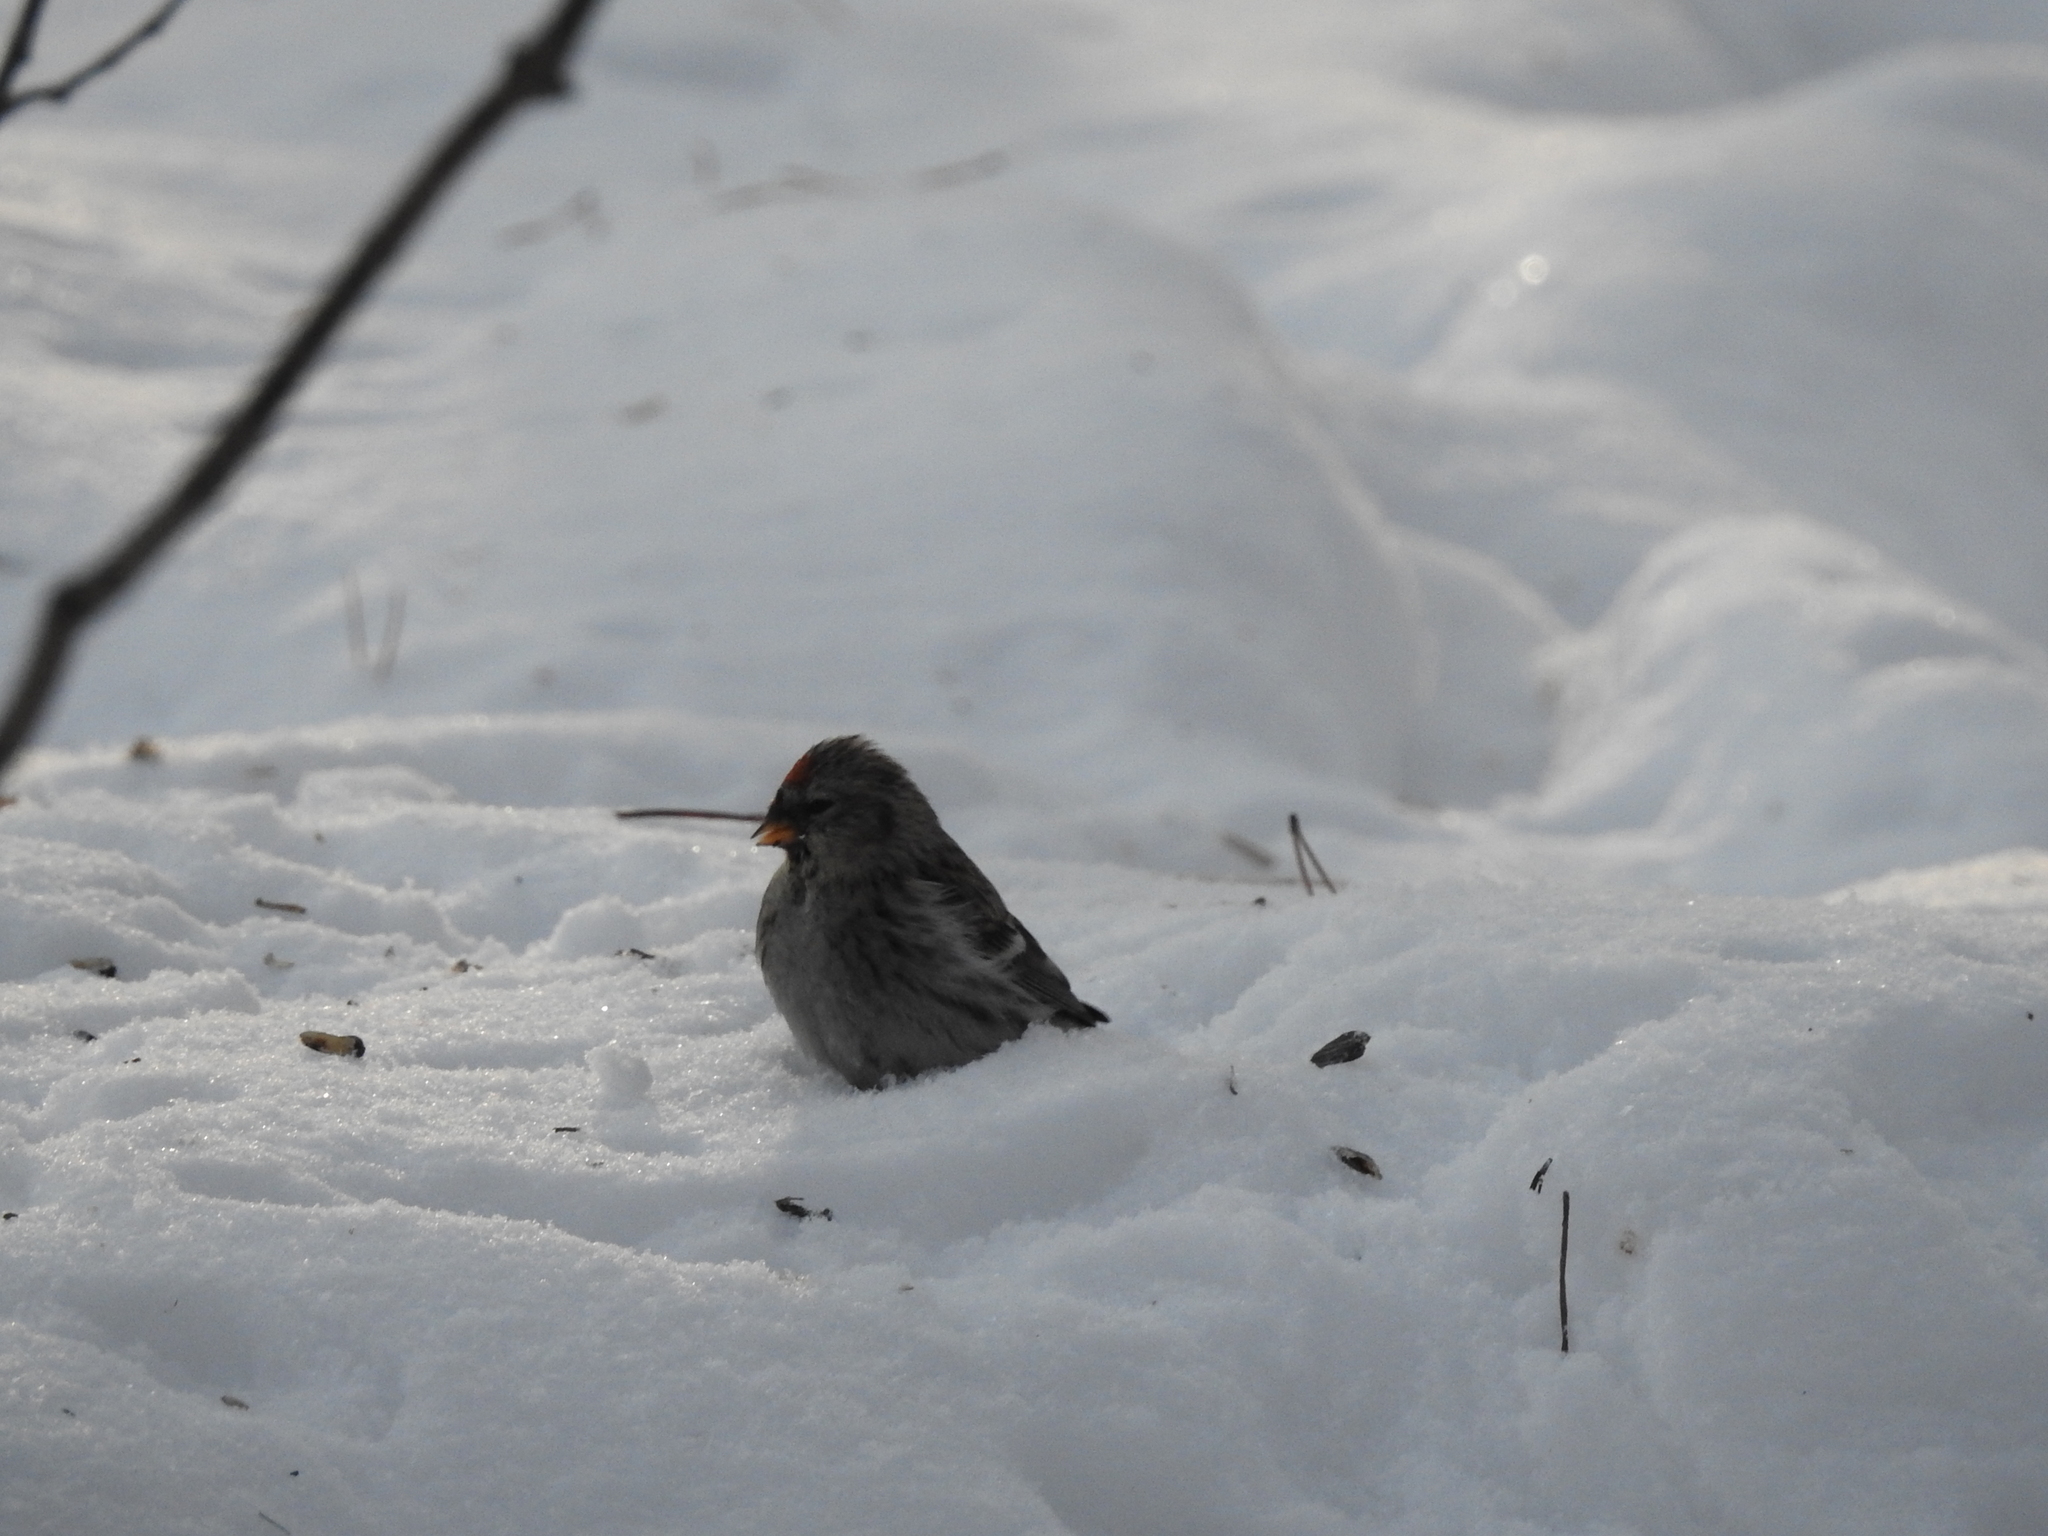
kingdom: Animalia
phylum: Chordata
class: Aves
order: Passeriformes
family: Fringillidae
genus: Acanthis
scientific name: Acanthis flammea
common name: Common redpoll
